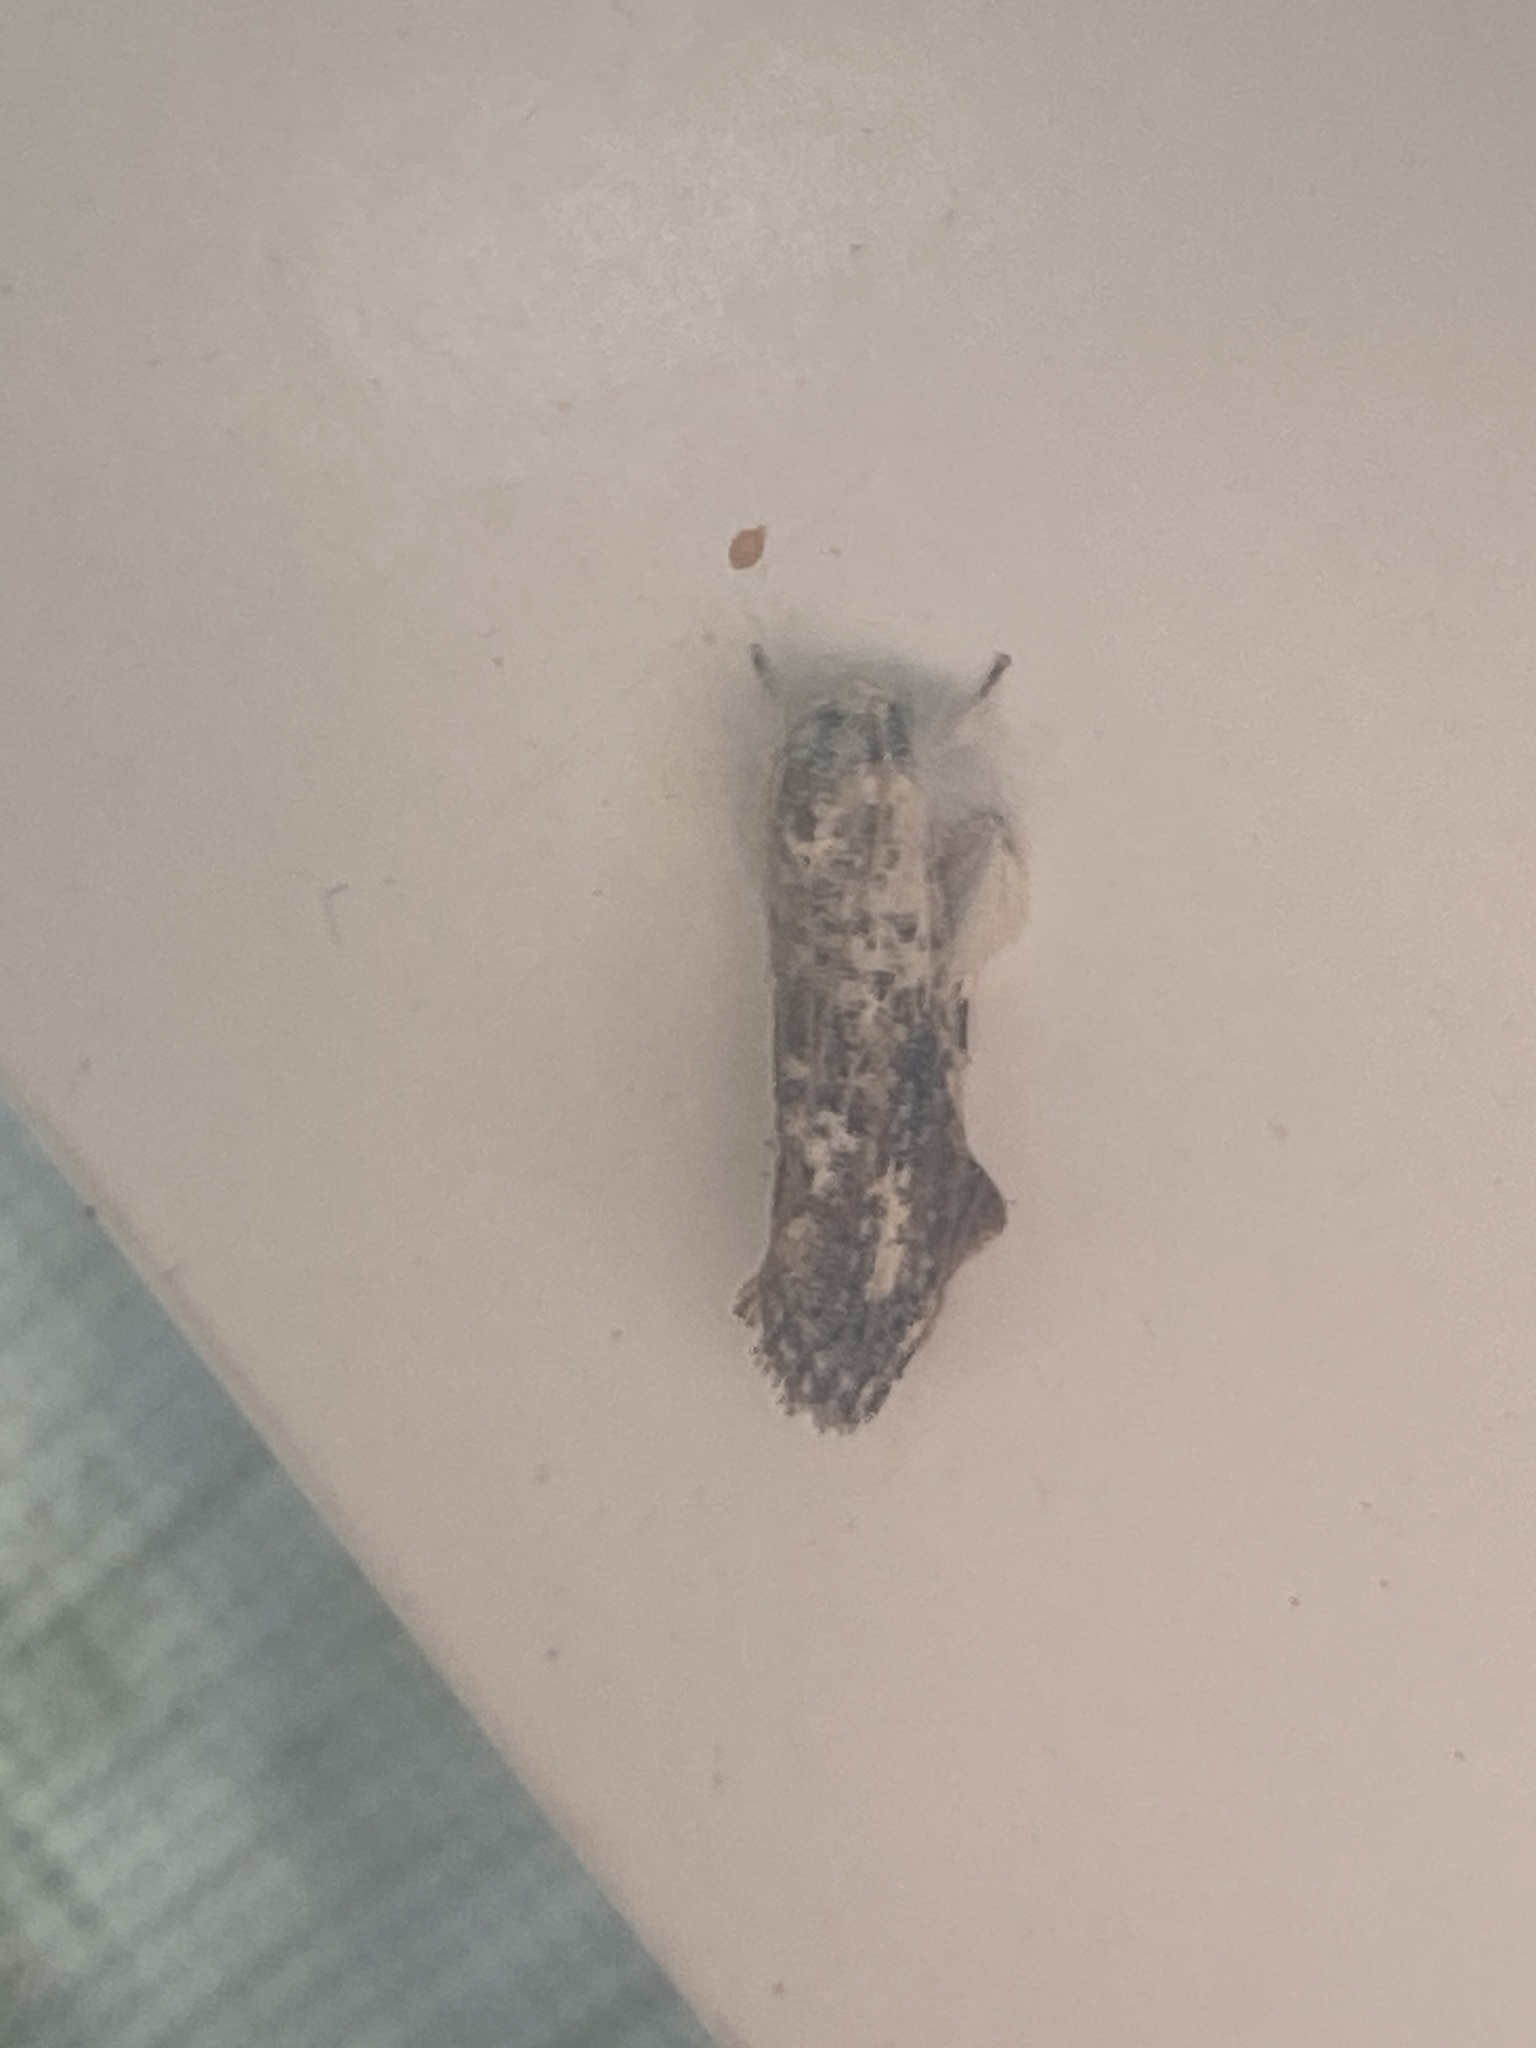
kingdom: Animalia
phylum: Arthropoda
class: Insecta
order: Lepidoptera
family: Tineidae
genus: Acrolophus
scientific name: Acrolophus mycetophagus
